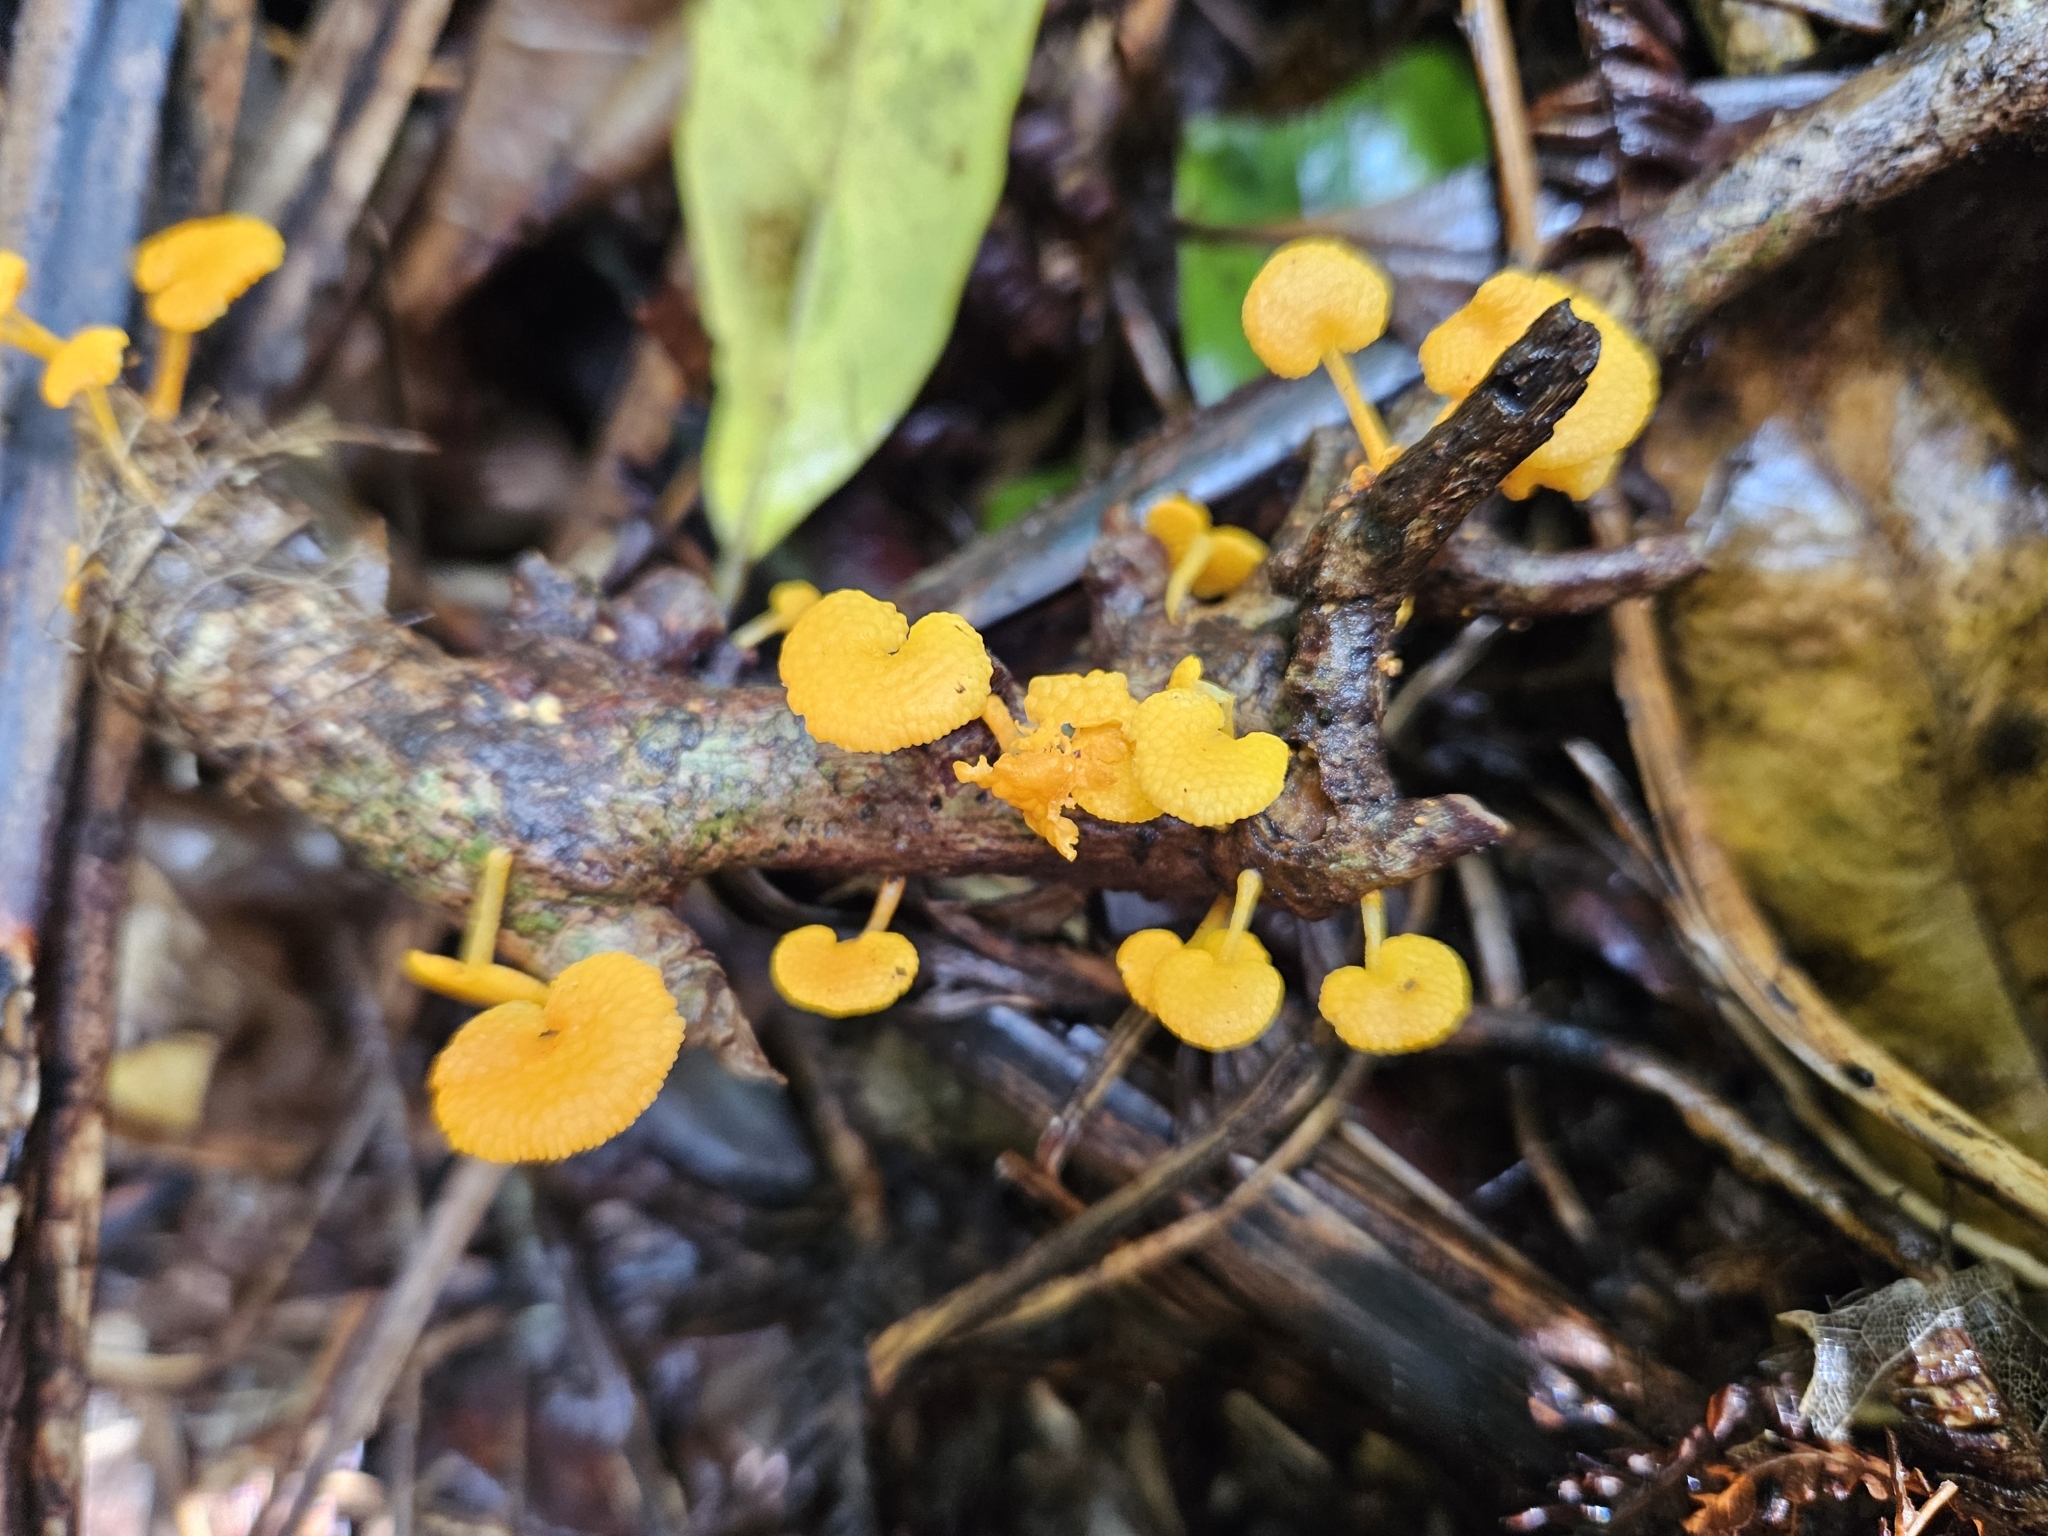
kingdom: Fungi
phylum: Basidiomycota
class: Agaricomycetes
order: Agaricales
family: Mycenaceae
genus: Favolaschia
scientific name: Favolaschia claudopus
